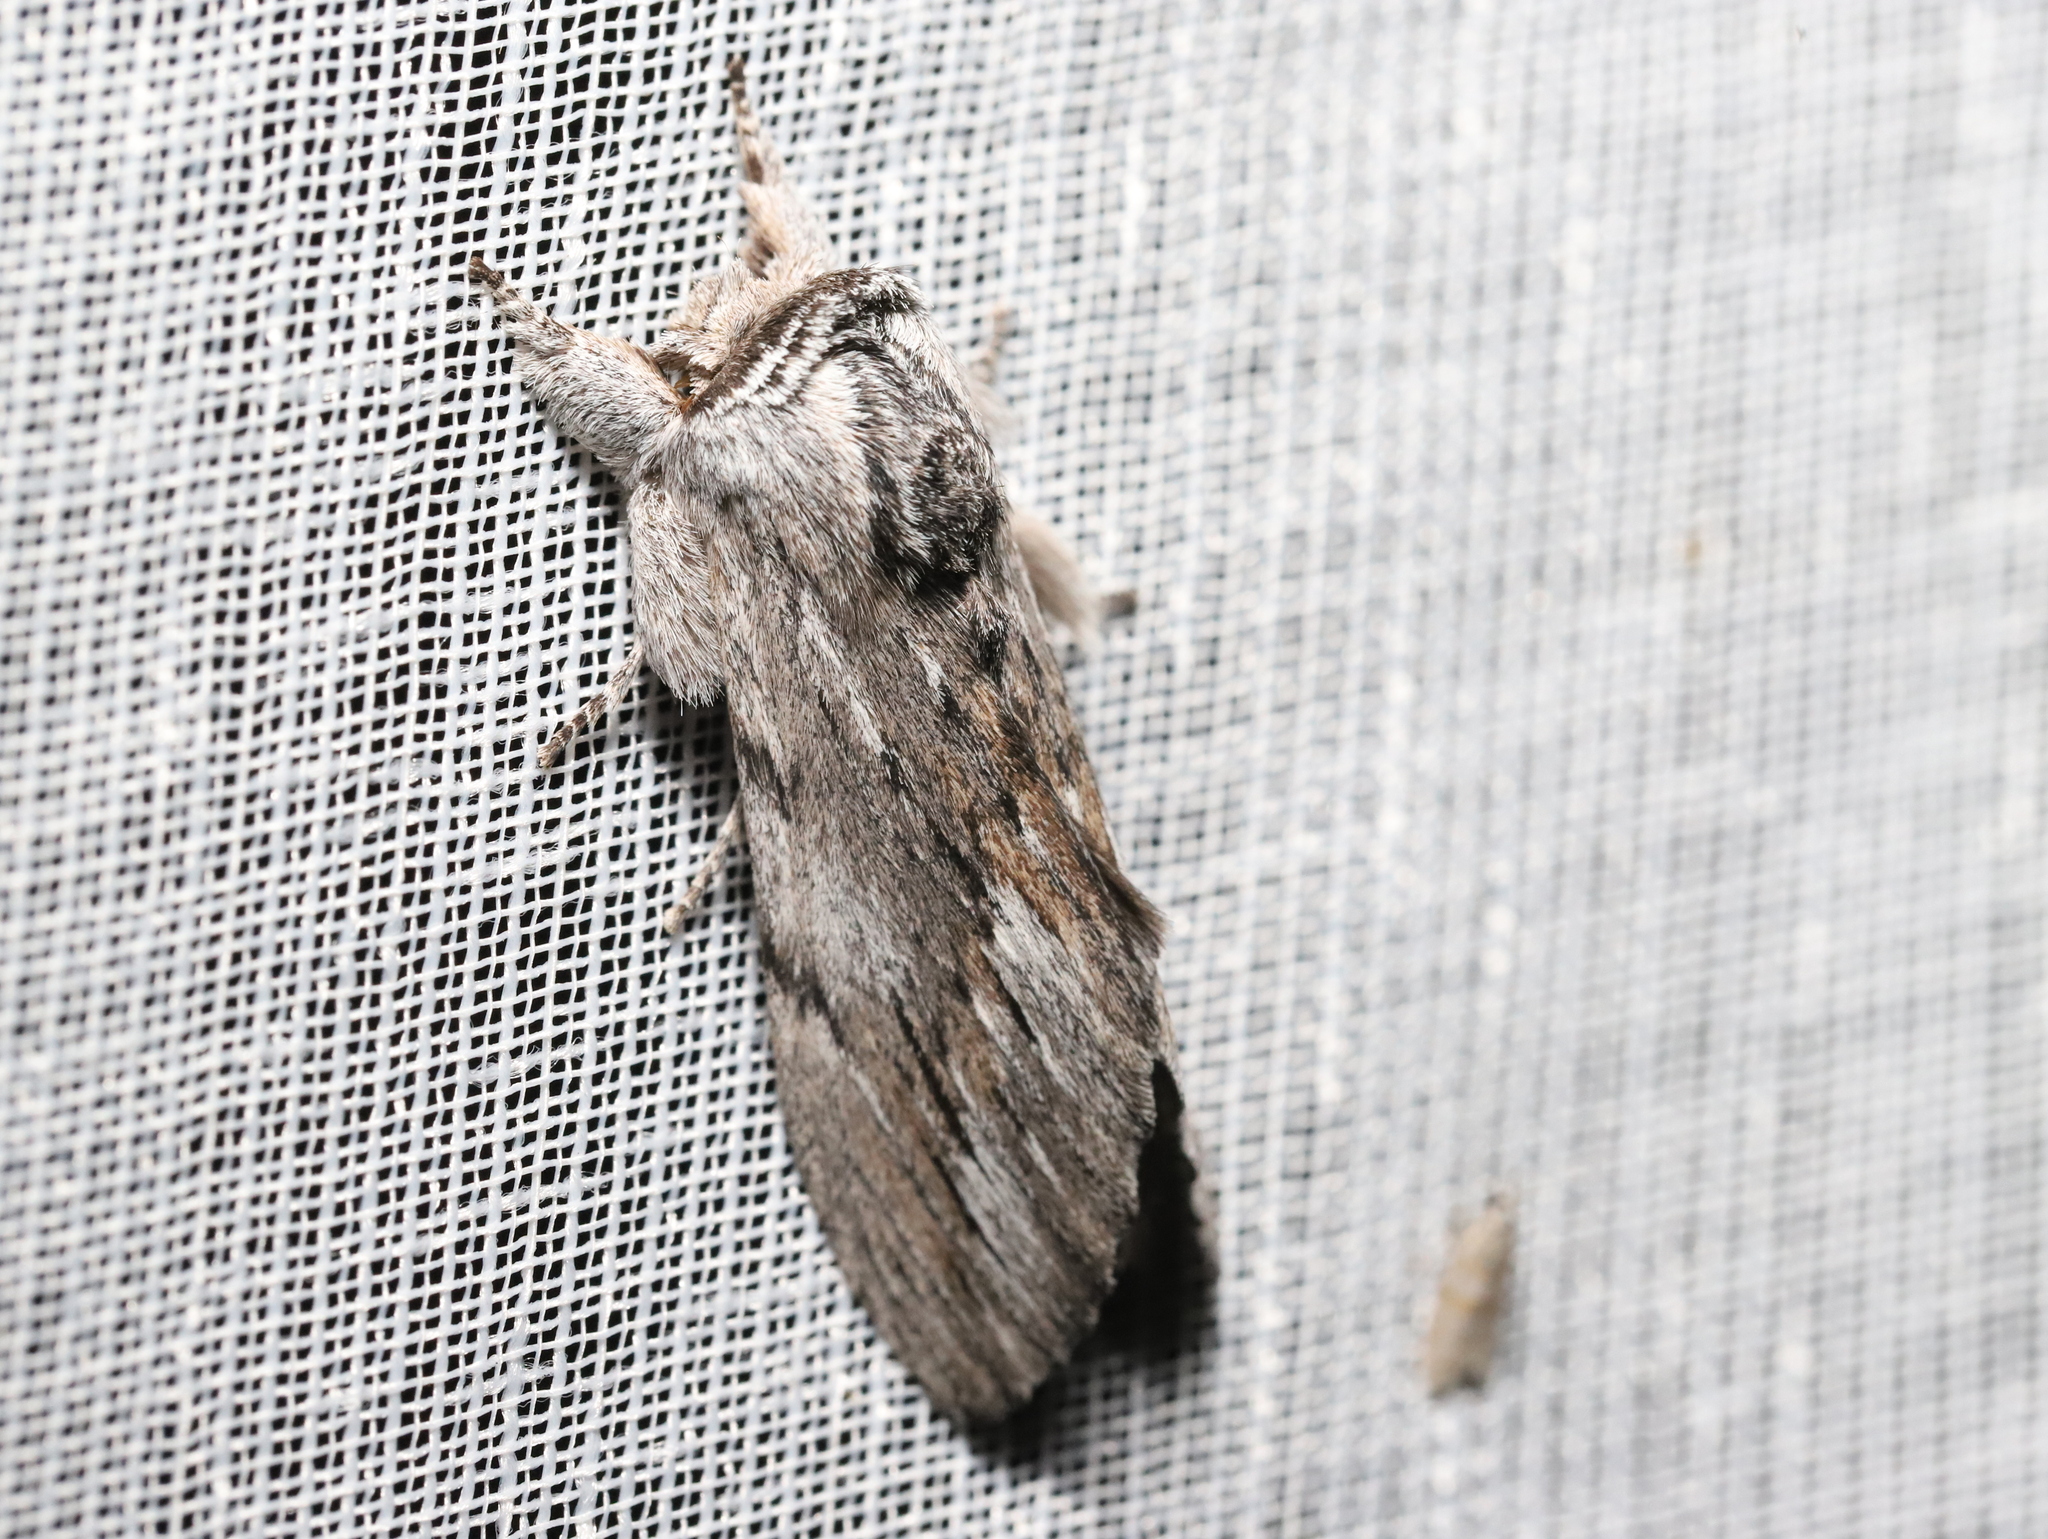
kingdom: Animalia
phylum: Arthropoda
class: Insecta
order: Lepidoptera
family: Notodontidae
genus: Destolmia
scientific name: Destolmia lineata
